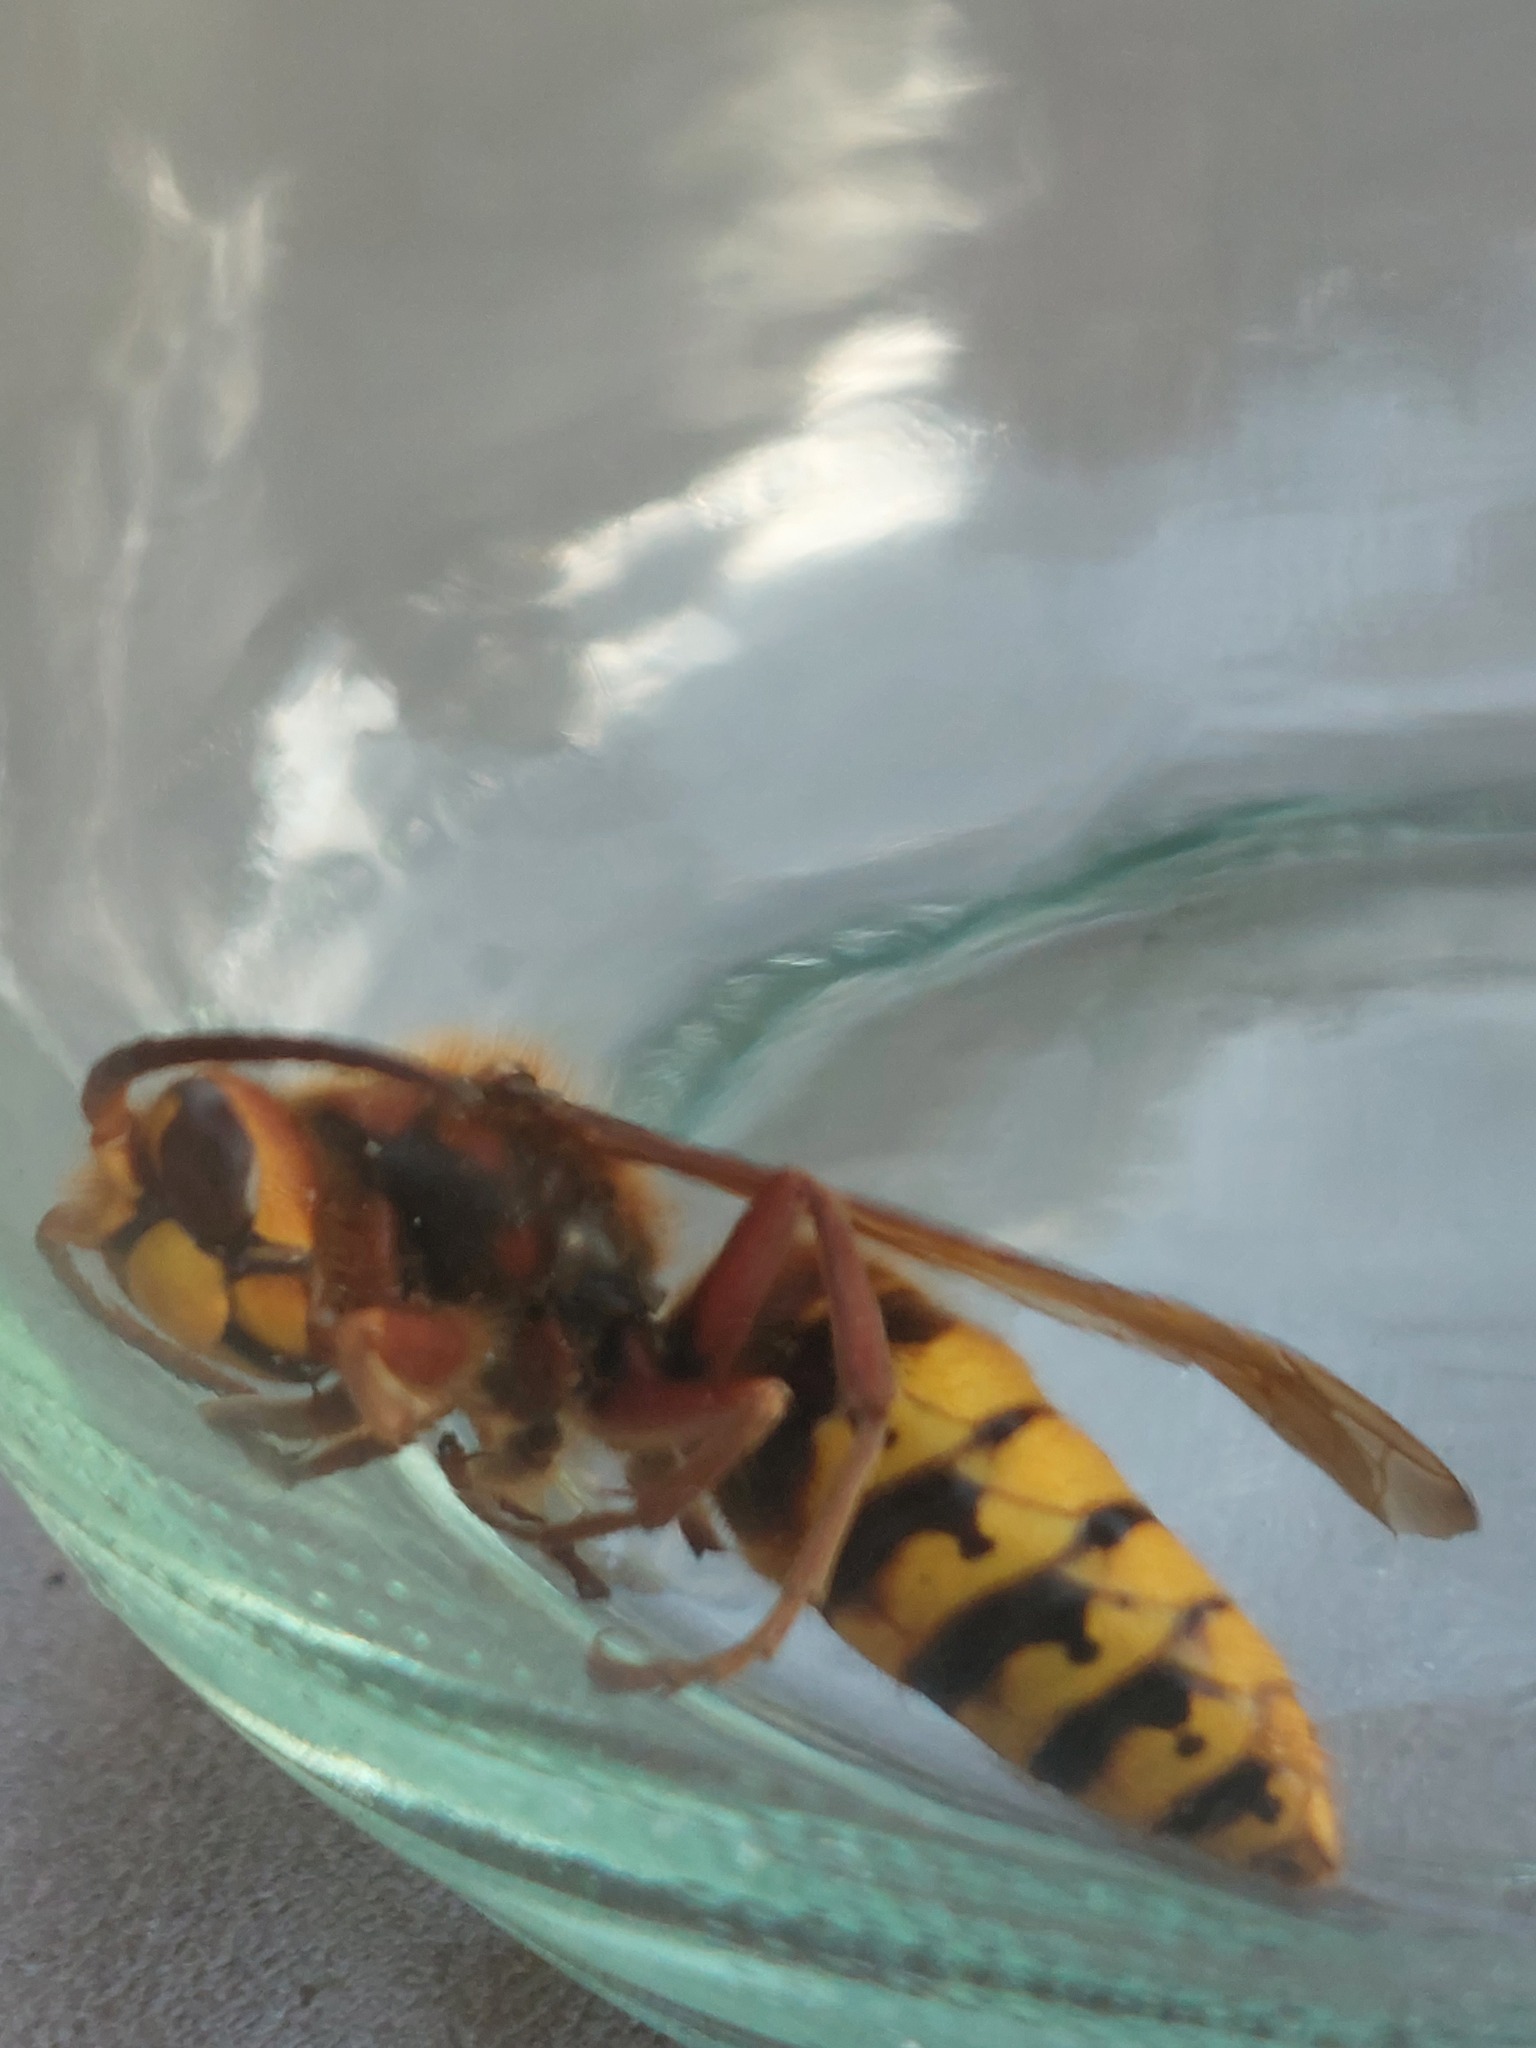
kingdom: Animalia
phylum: Arthropoda
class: Insecta
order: Hymenoptera
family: Vespidae
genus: Vespa
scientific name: Vespa crabro
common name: Hornet
